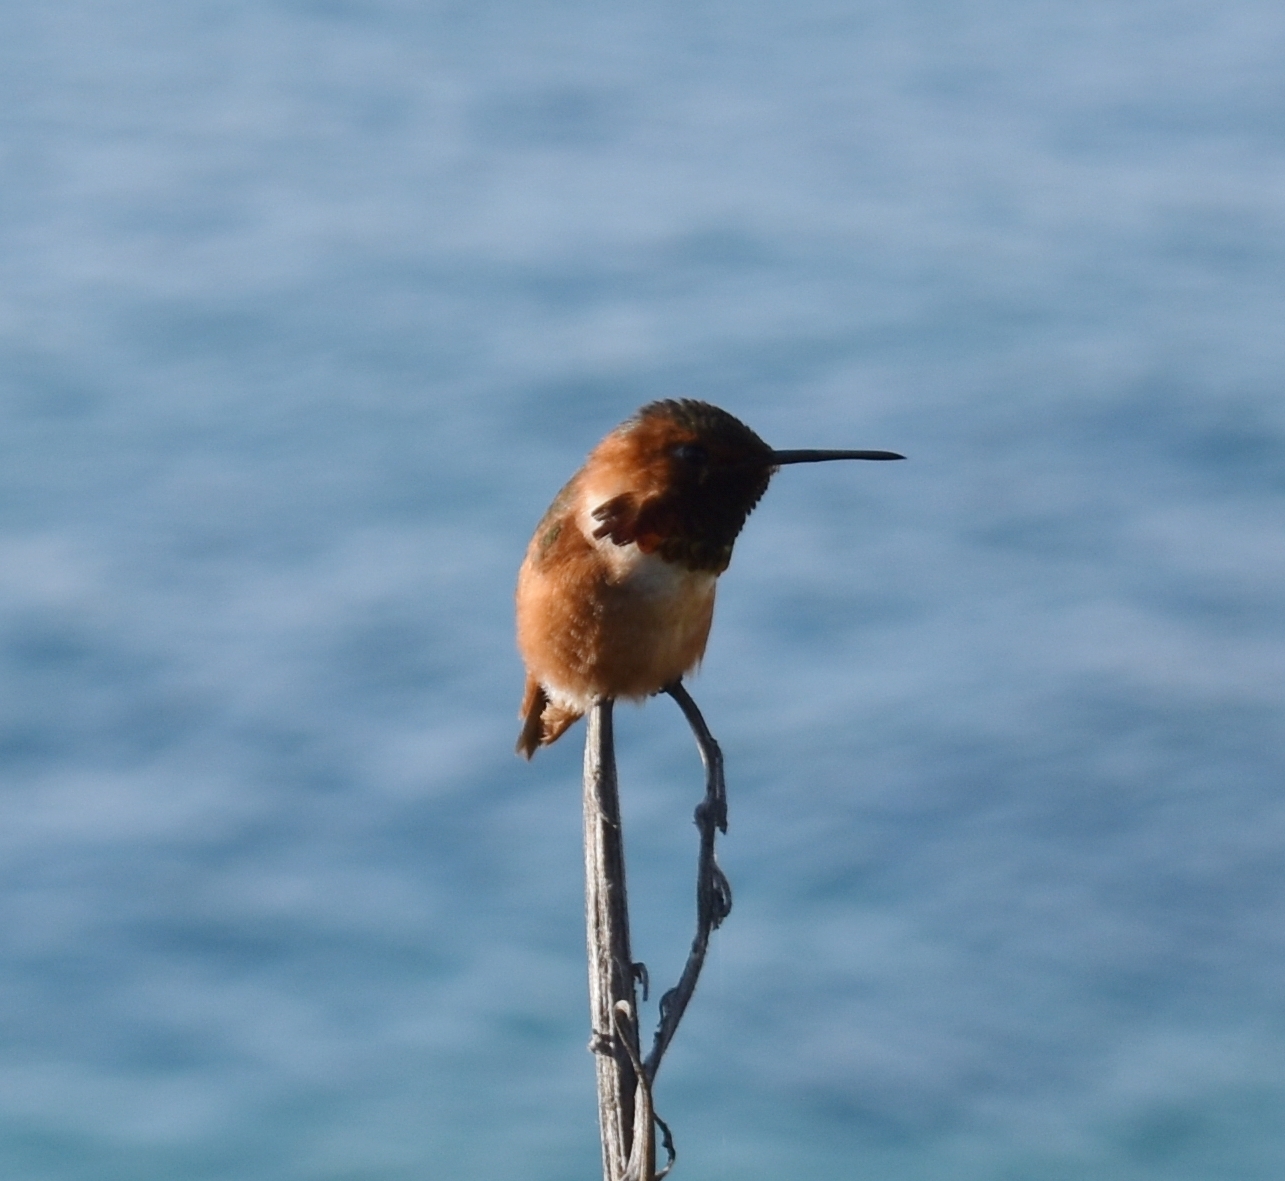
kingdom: Animalia
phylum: Chordata
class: Aves
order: Apodiformes
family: Trochilidae
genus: Selasphorus
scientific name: Selasphorus
